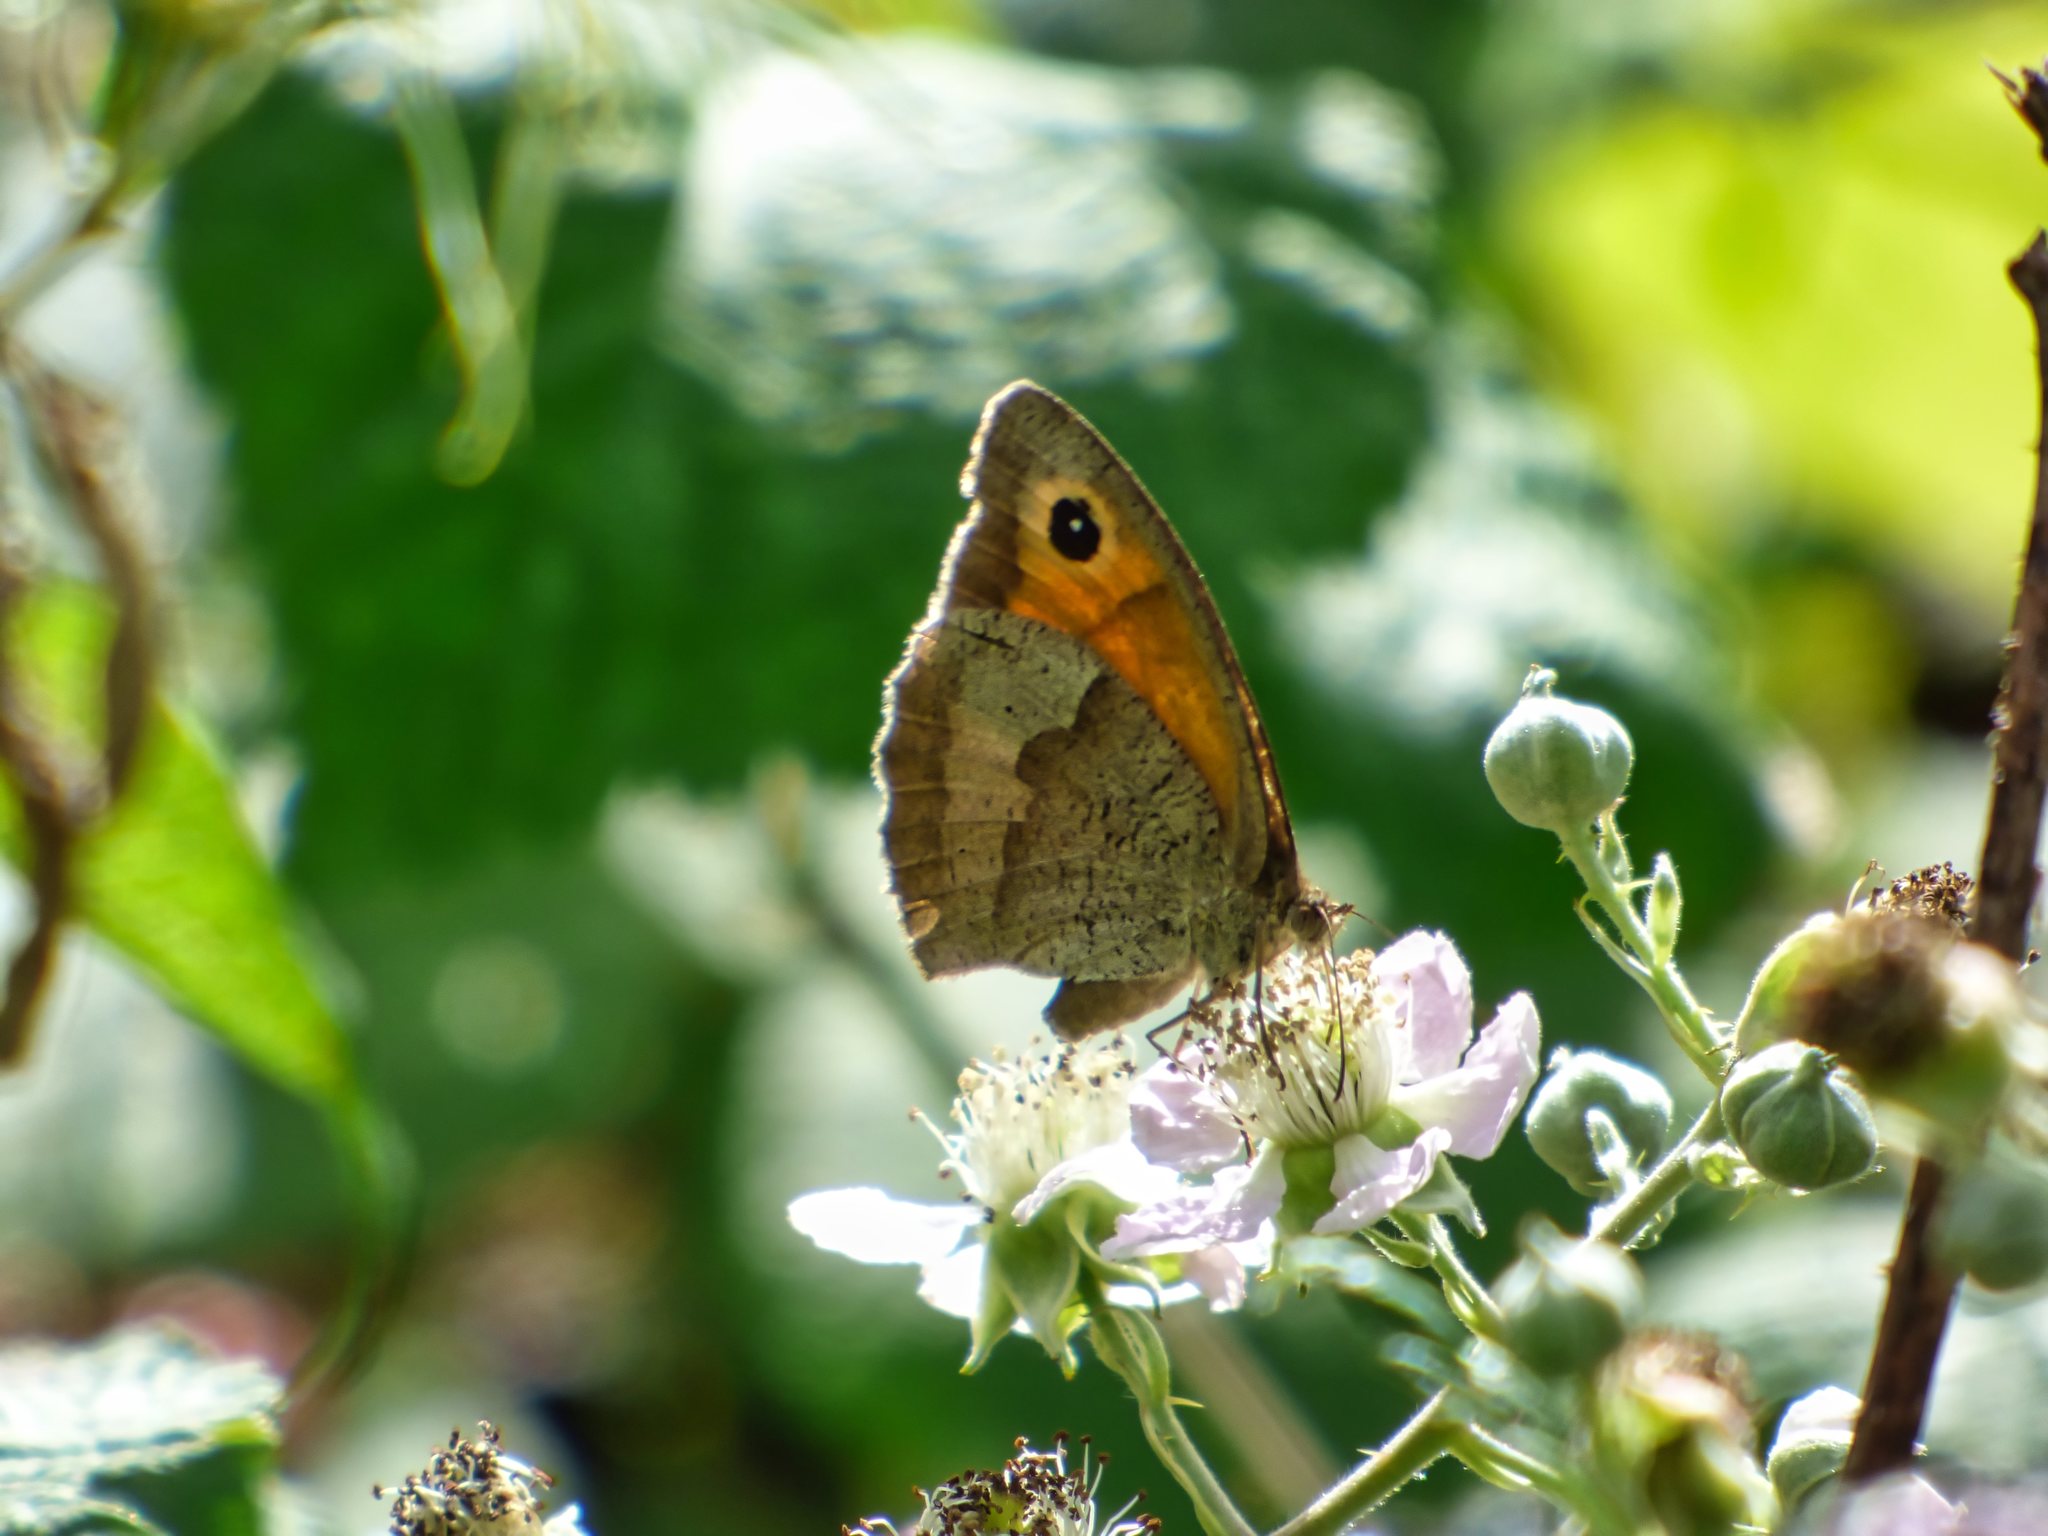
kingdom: Animalia
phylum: Arthropoda
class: Insecta
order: Lepidoptera
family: Nymphalidae
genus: Maniola
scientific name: Maniola jurtina
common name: Meadow brown
